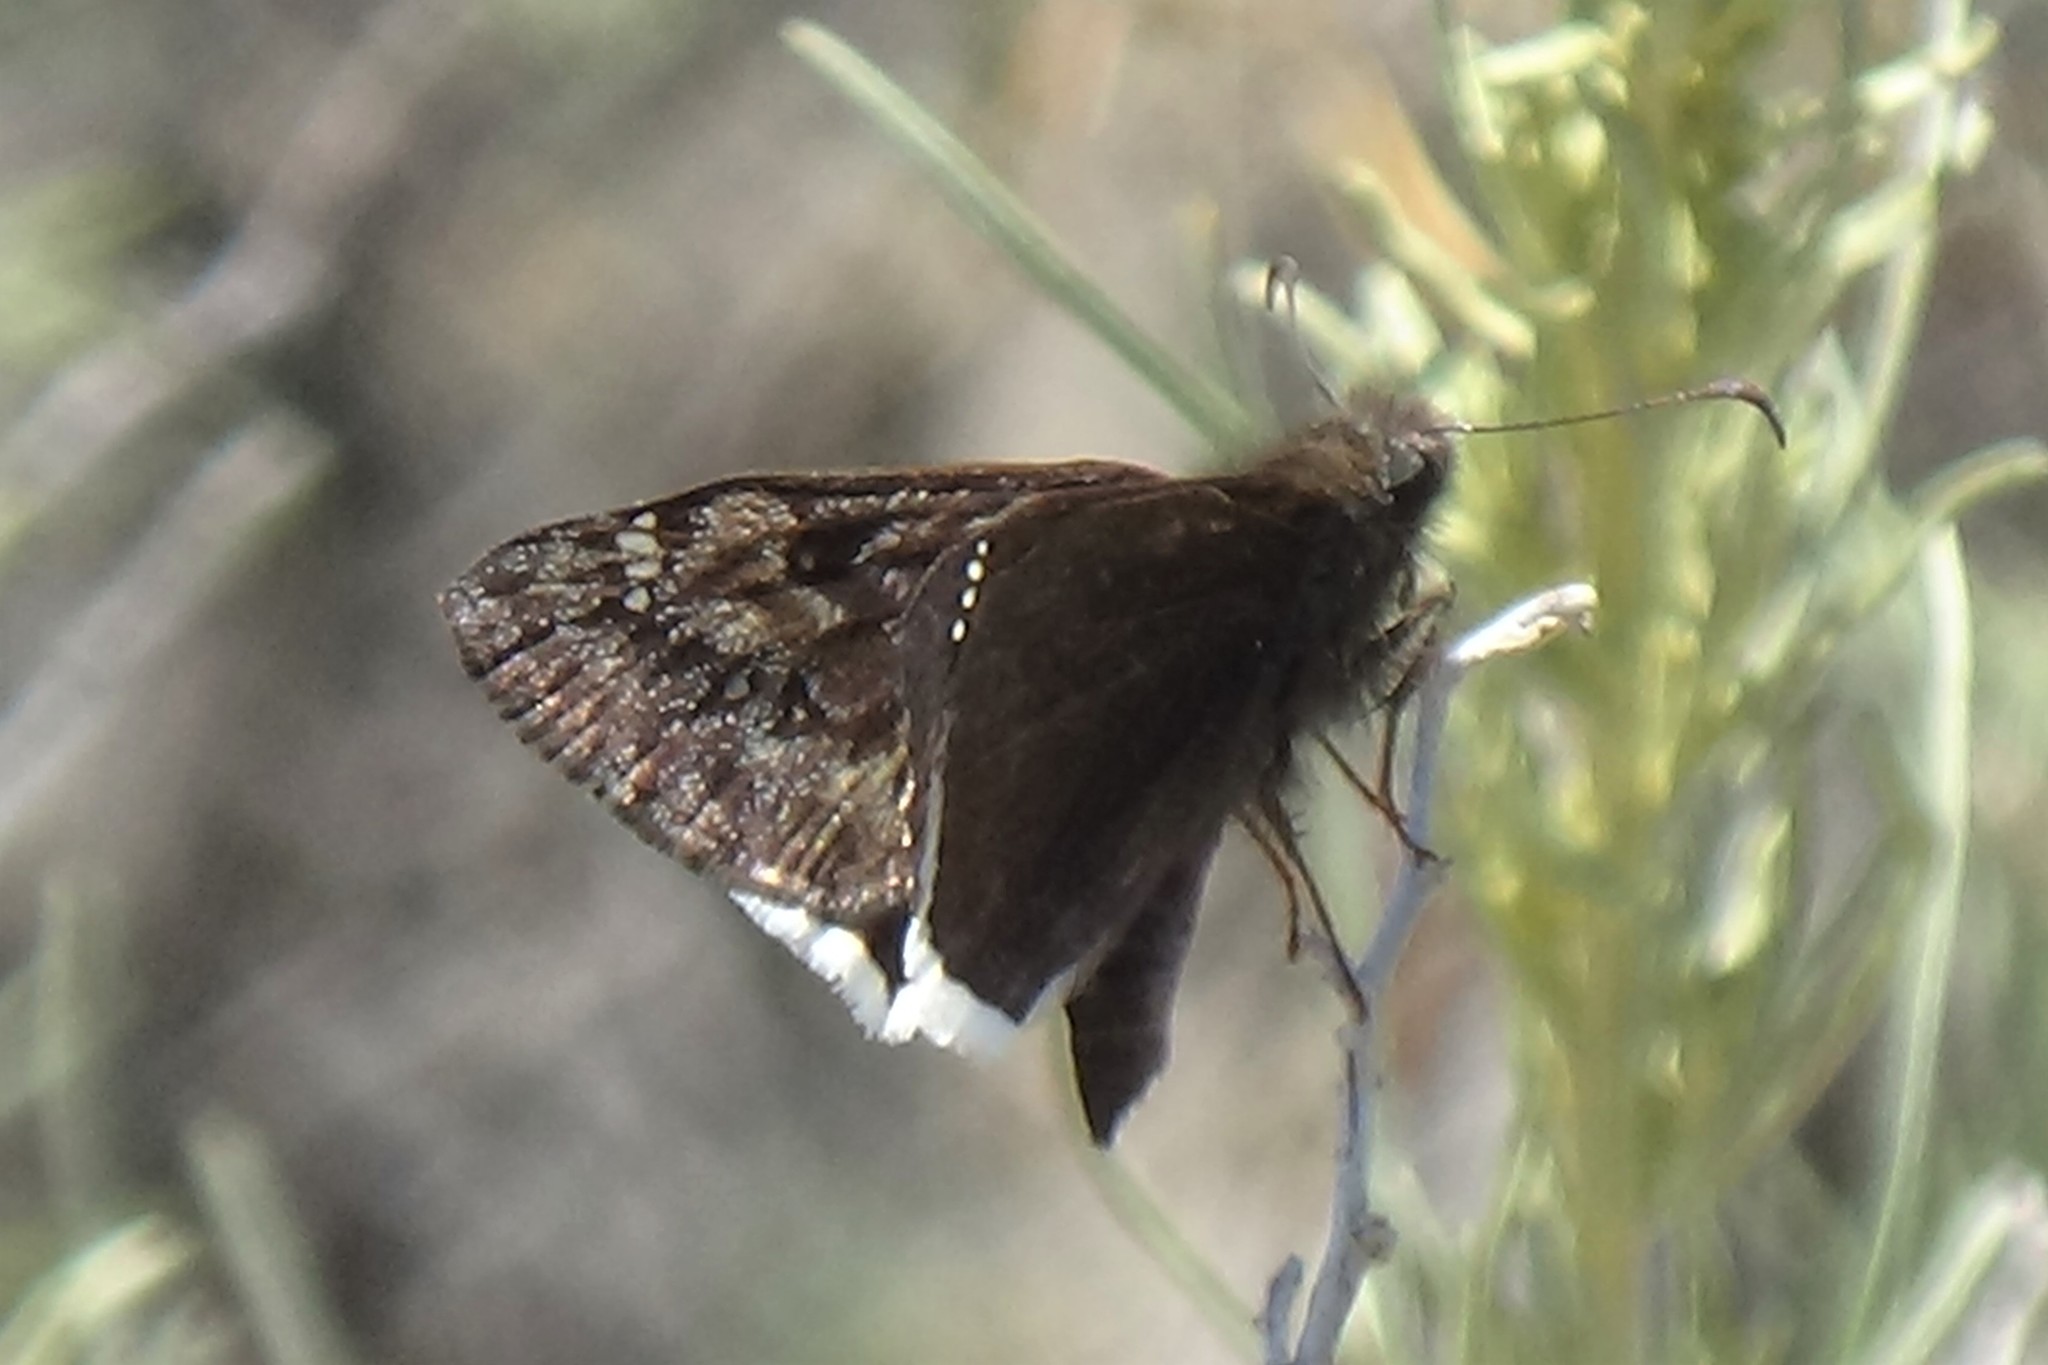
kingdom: Animalia
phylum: Arthropoda
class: Insecta
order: Lepidoptera
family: Hesperiidae
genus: Erynnis
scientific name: Erynnis tristis
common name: Mournful duskywing
